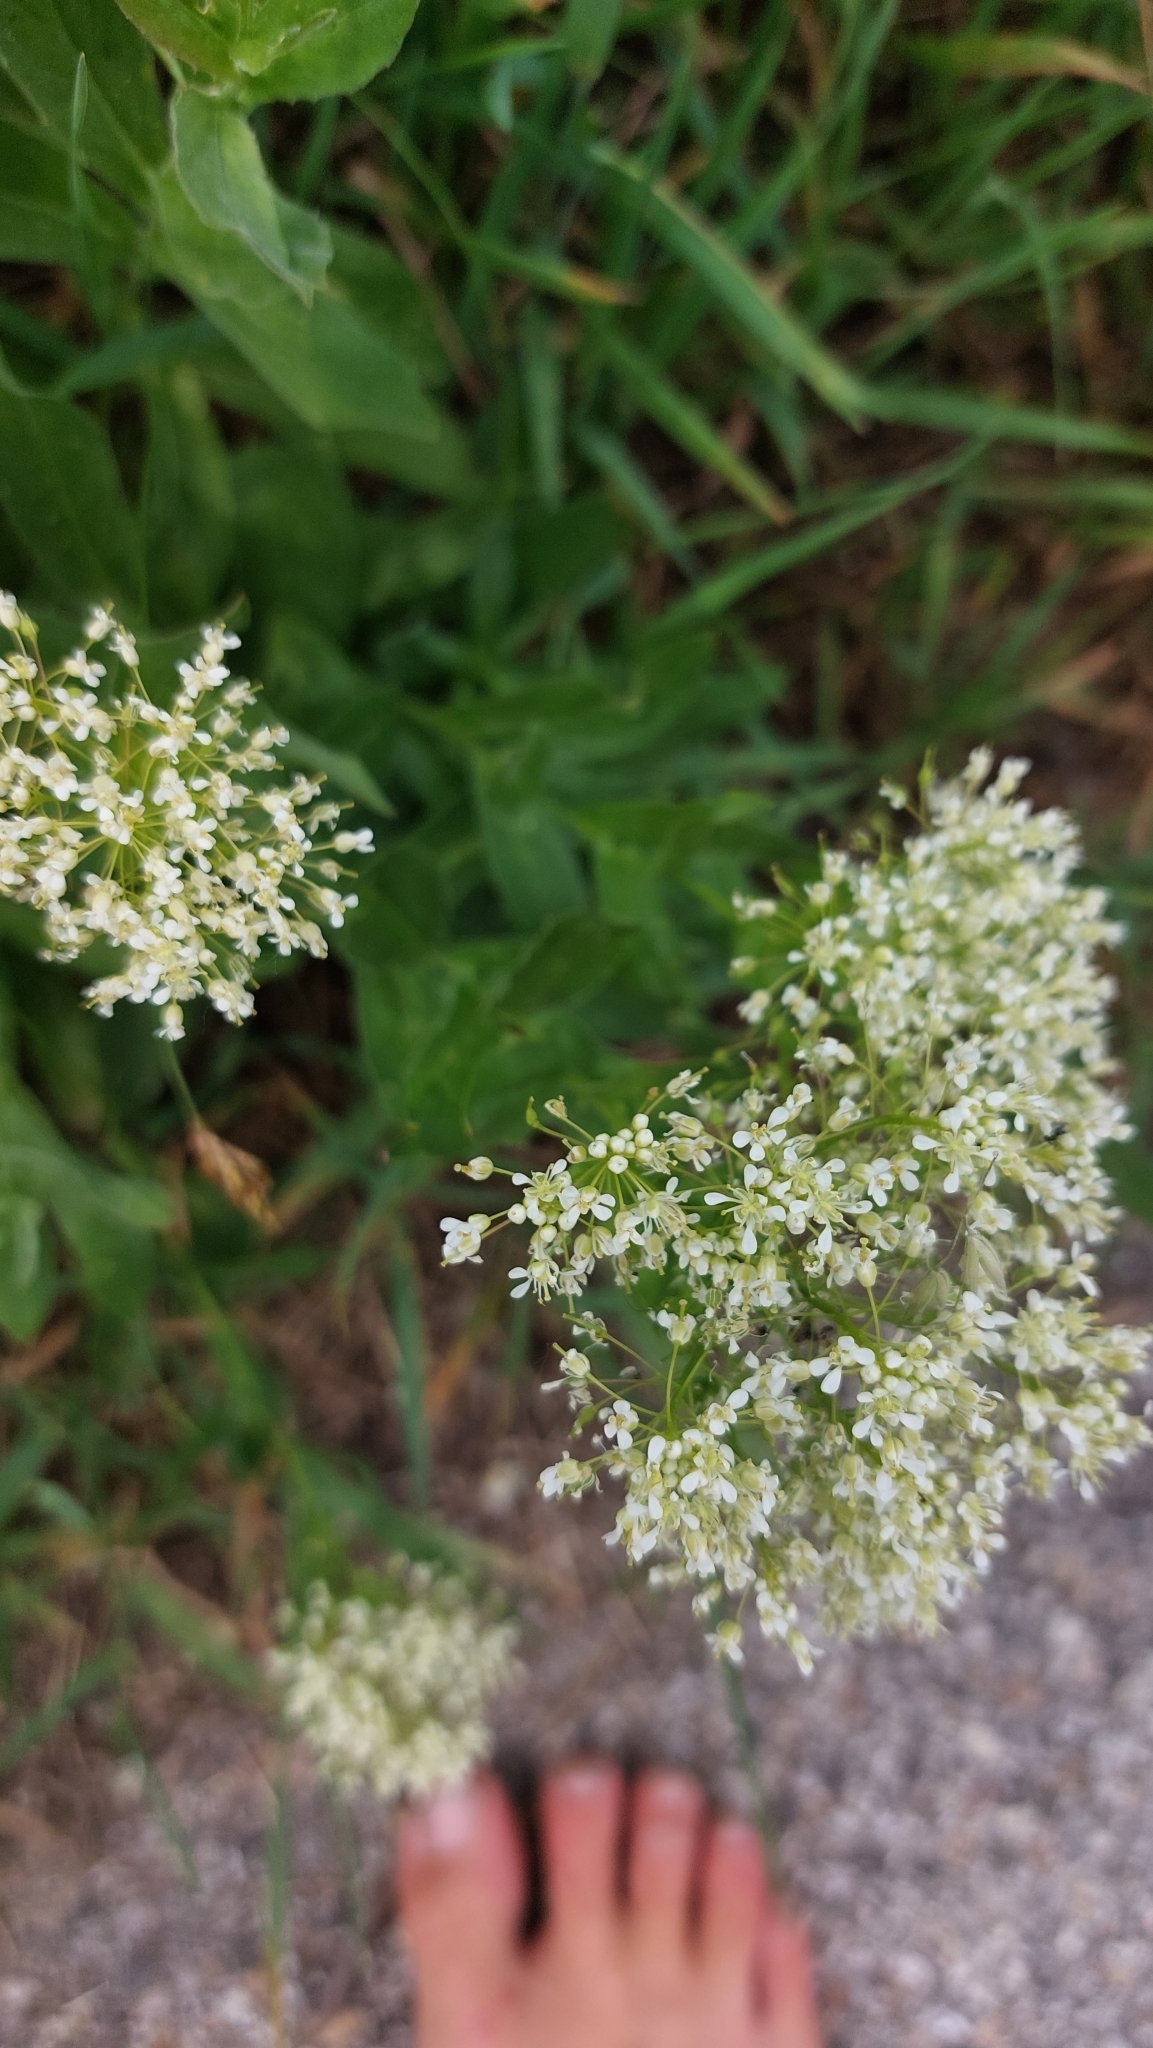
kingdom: Plantae
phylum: Tracheophyta
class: Magnoliopsida
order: Brassicales
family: Brassicaceae
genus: Lepidium
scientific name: Lepidium draba
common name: Hoary cress
